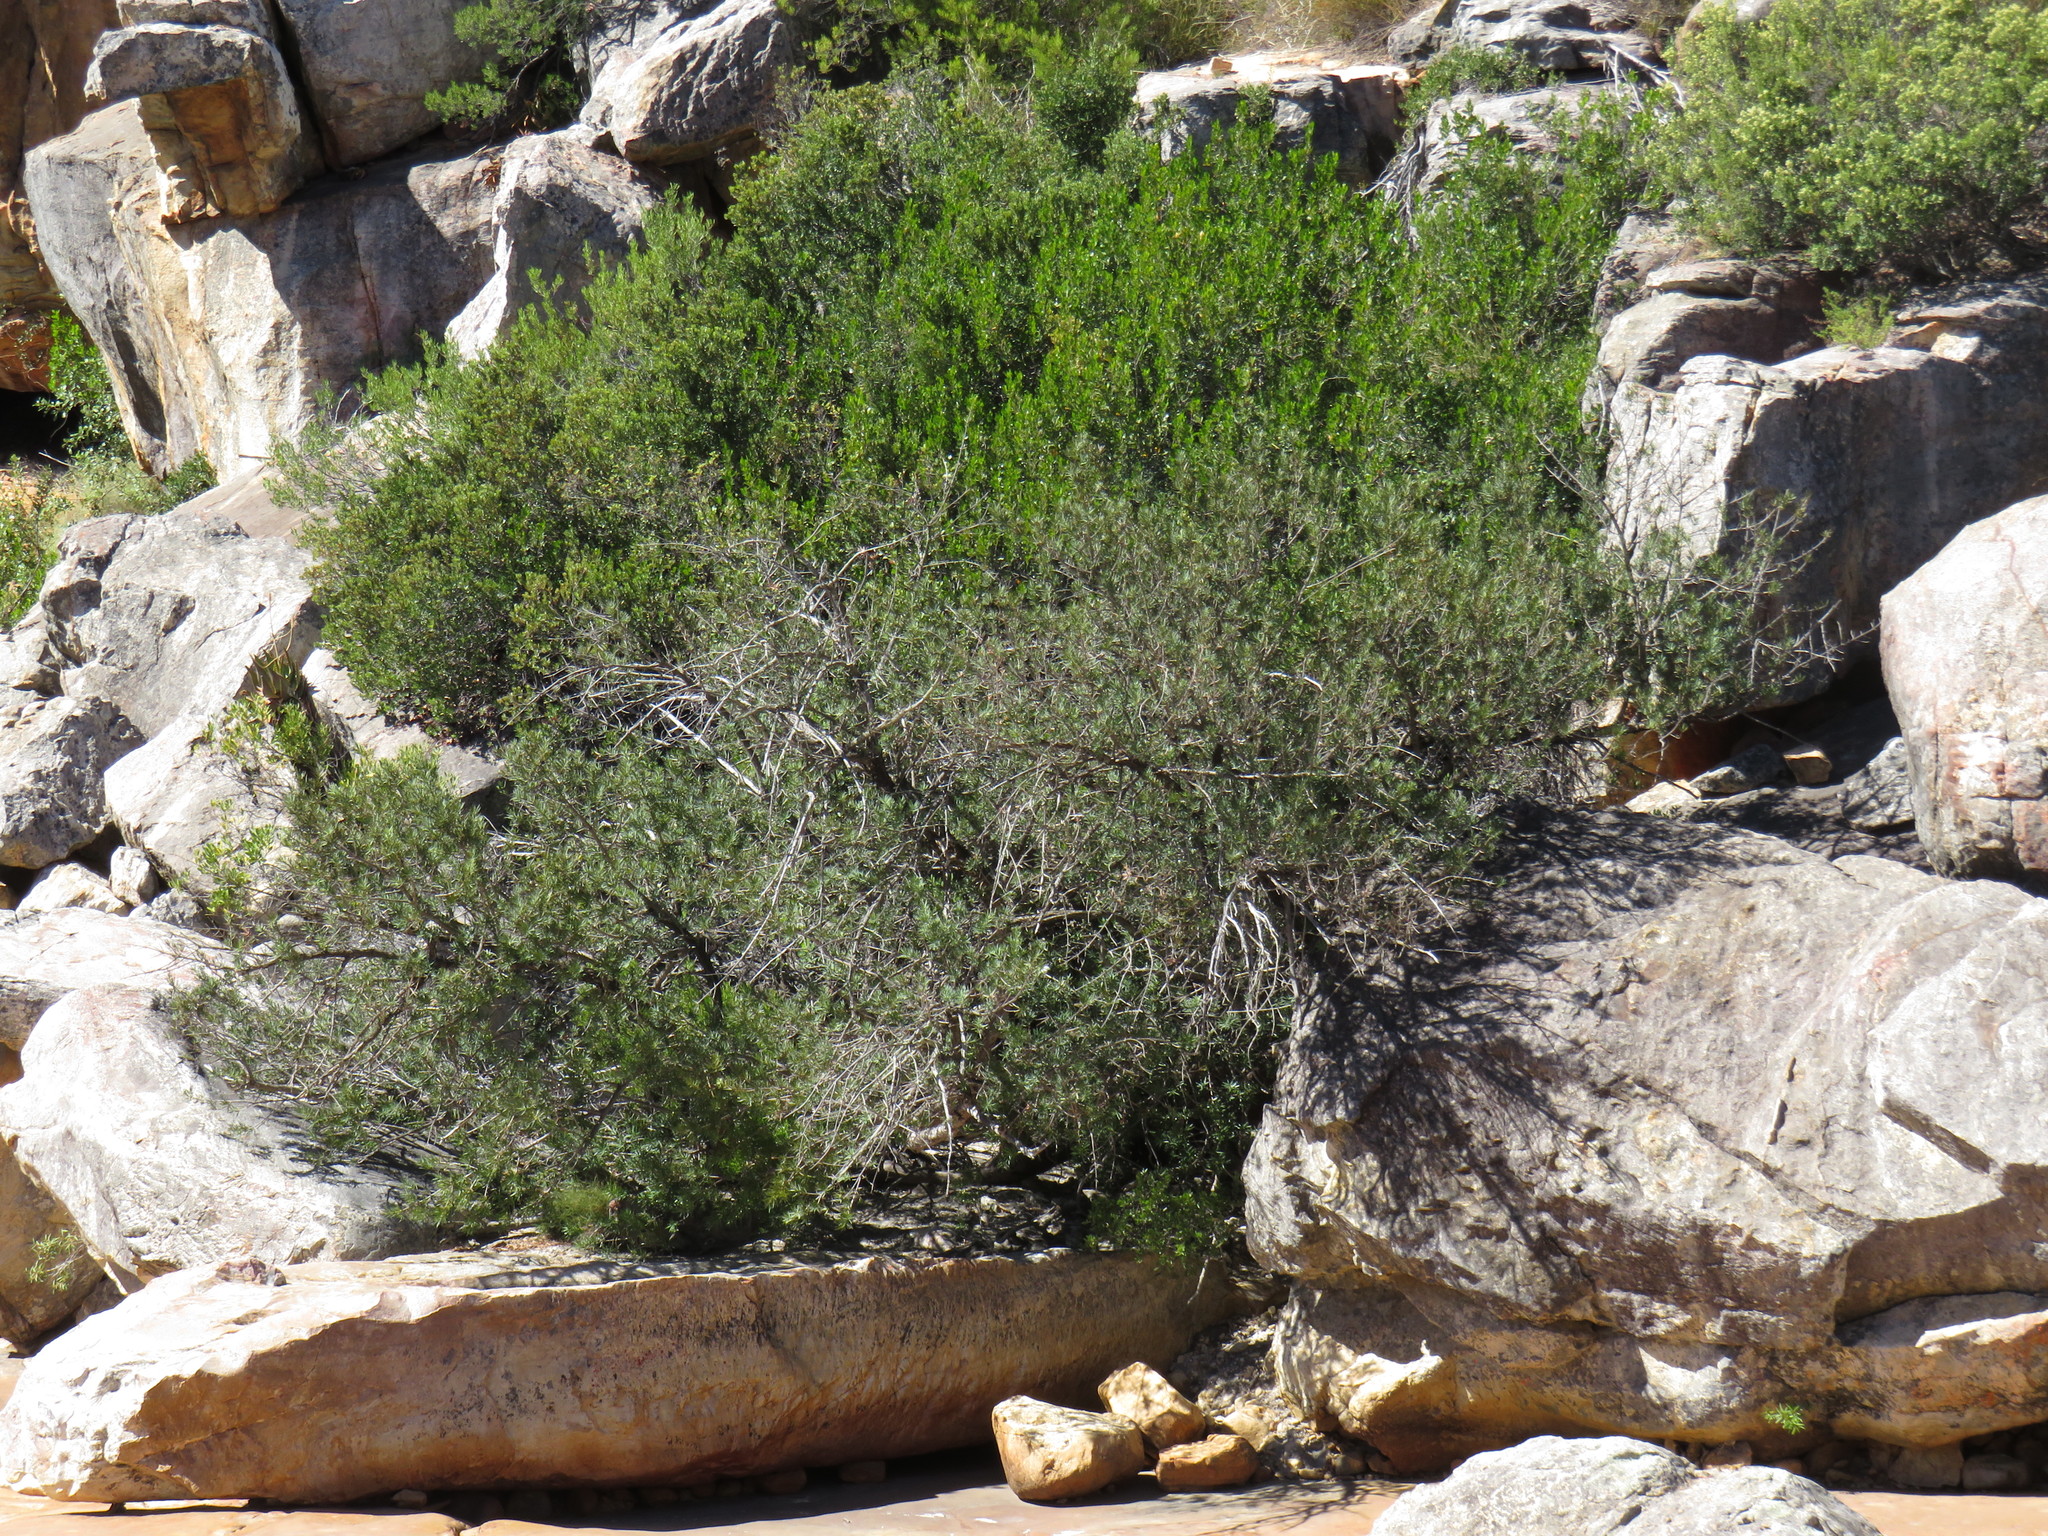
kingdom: Plantae
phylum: Tracheophyta
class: Pinopsida
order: Pinales
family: Podocarpaceae
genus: Podocarpus
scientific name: Podocarpus elongatus
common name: Breede river yellowwood
